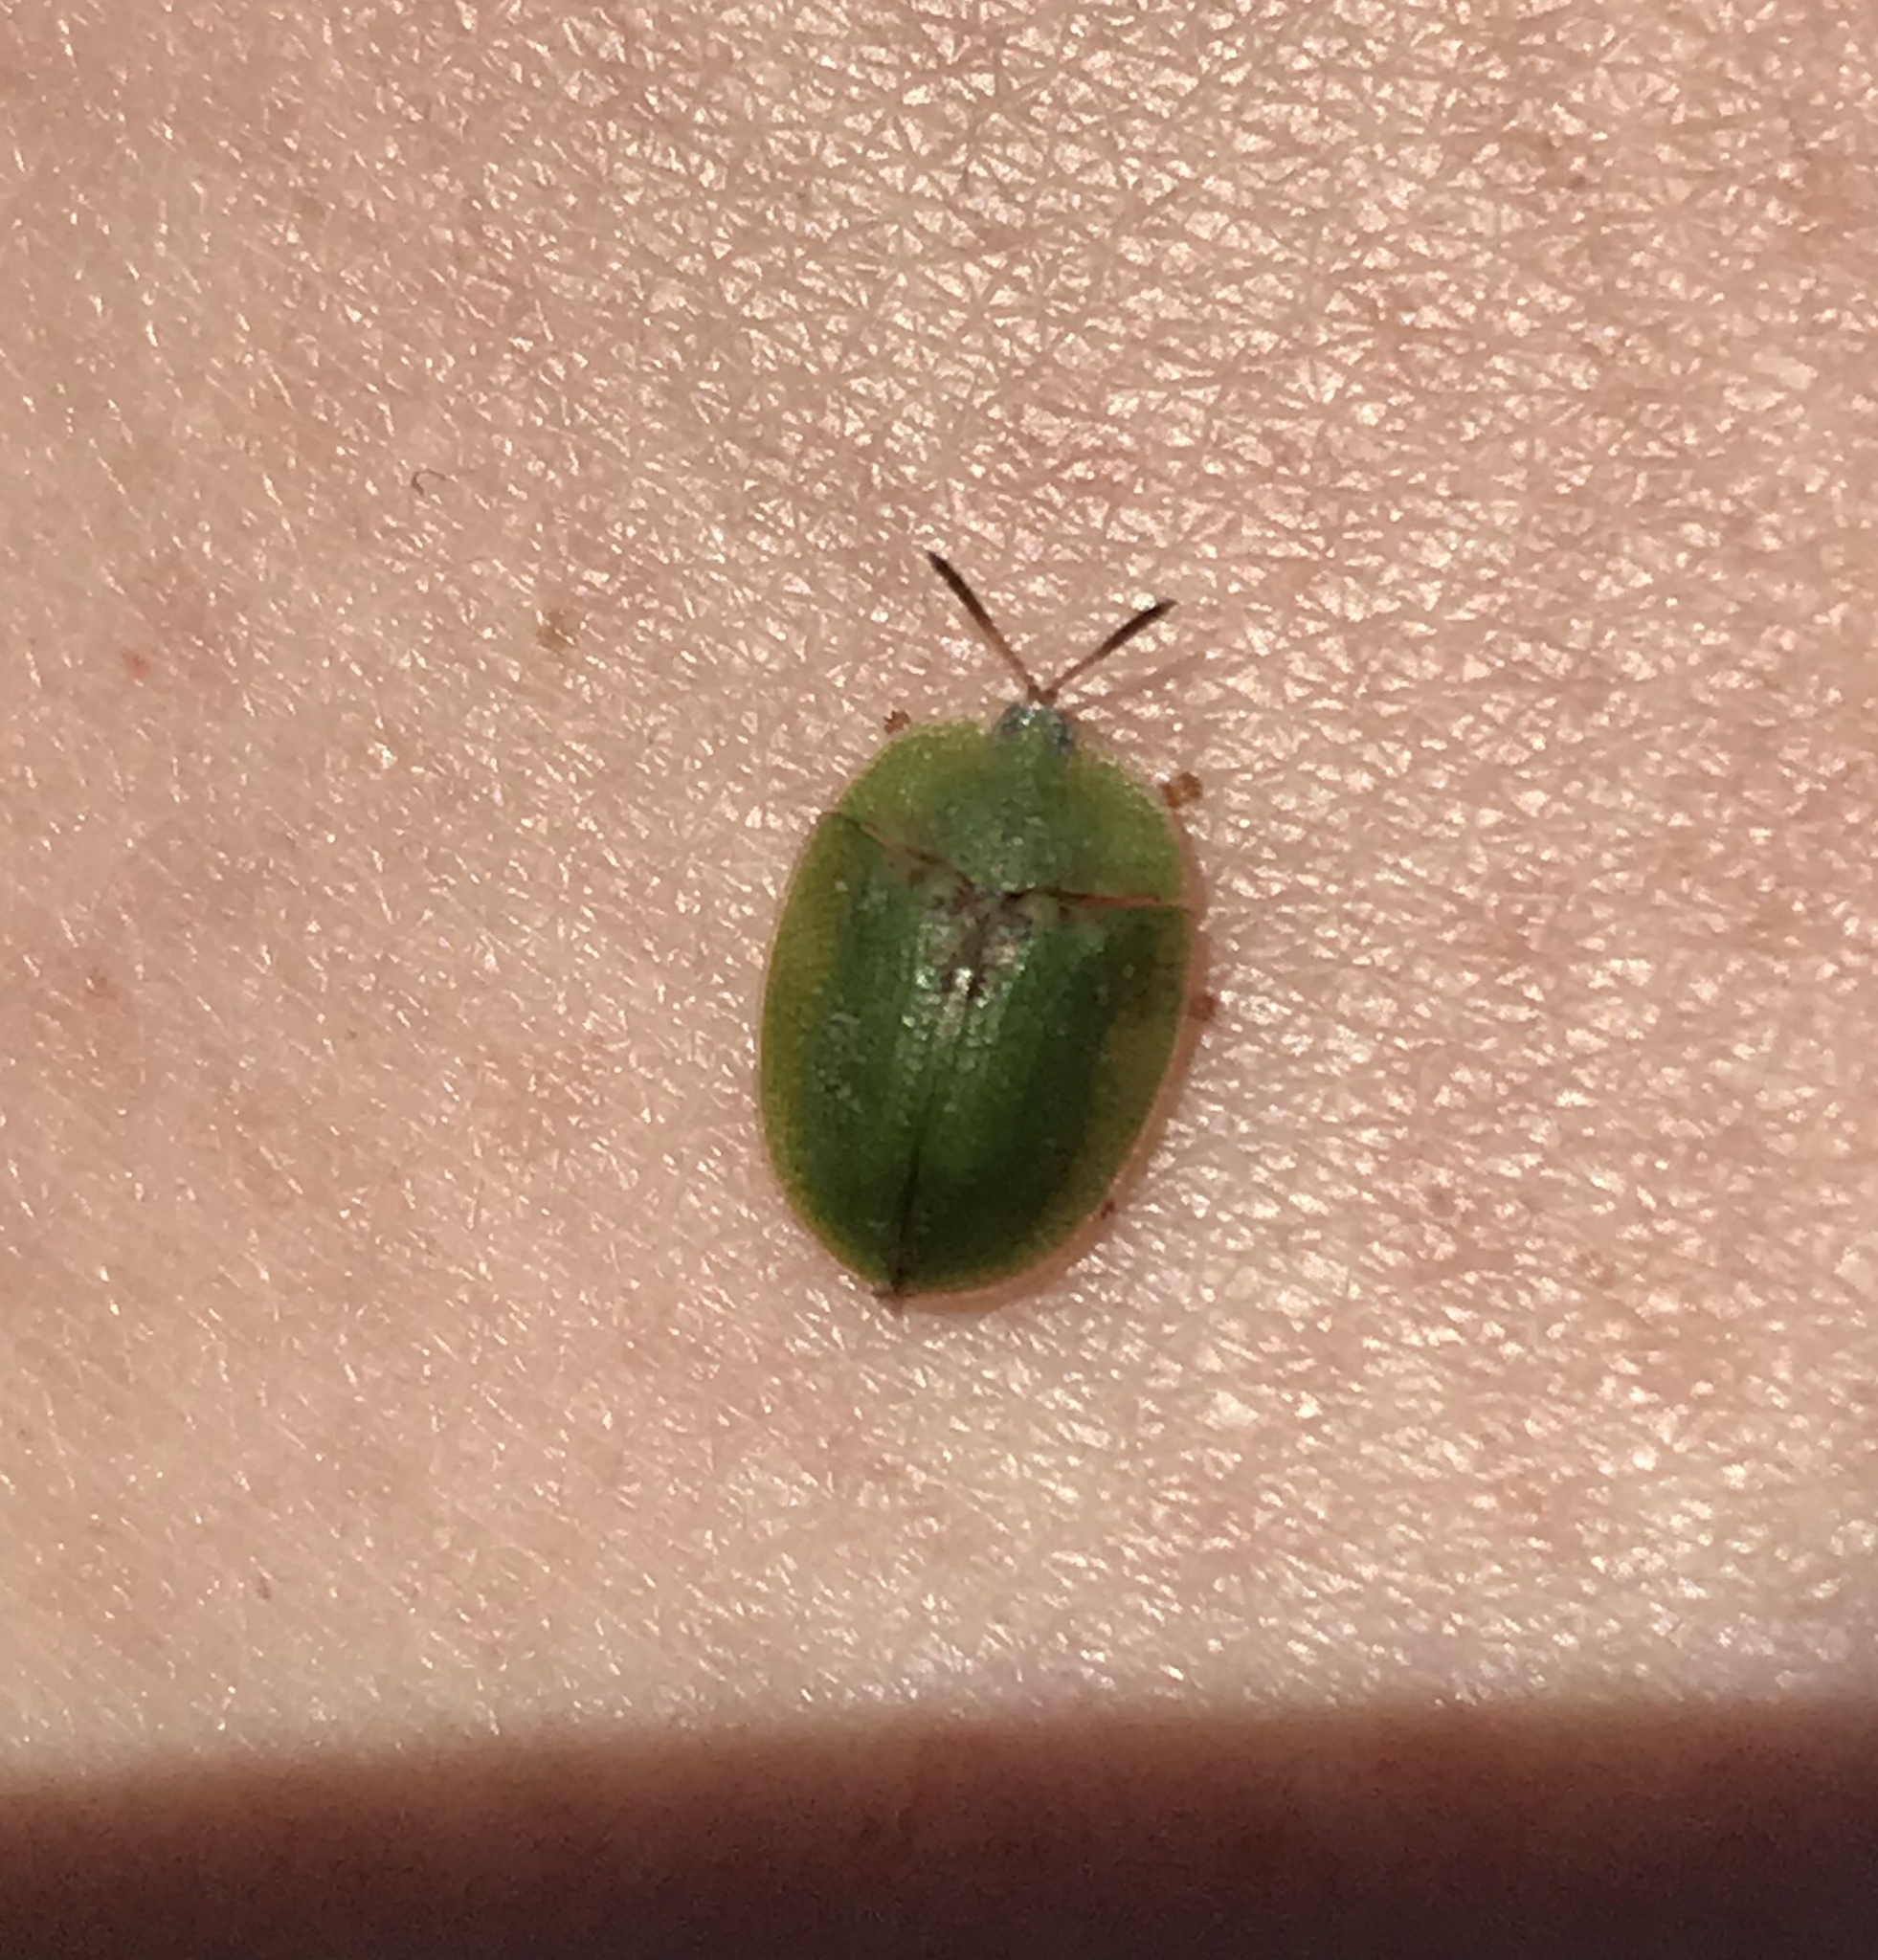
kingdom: Animalia
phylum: Arthropoda
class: Insecta
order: Coleoptera
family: Chrysomelidae
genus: Cassida
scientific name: Cassida rubiginosa
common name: Thistle tortoise beetle
